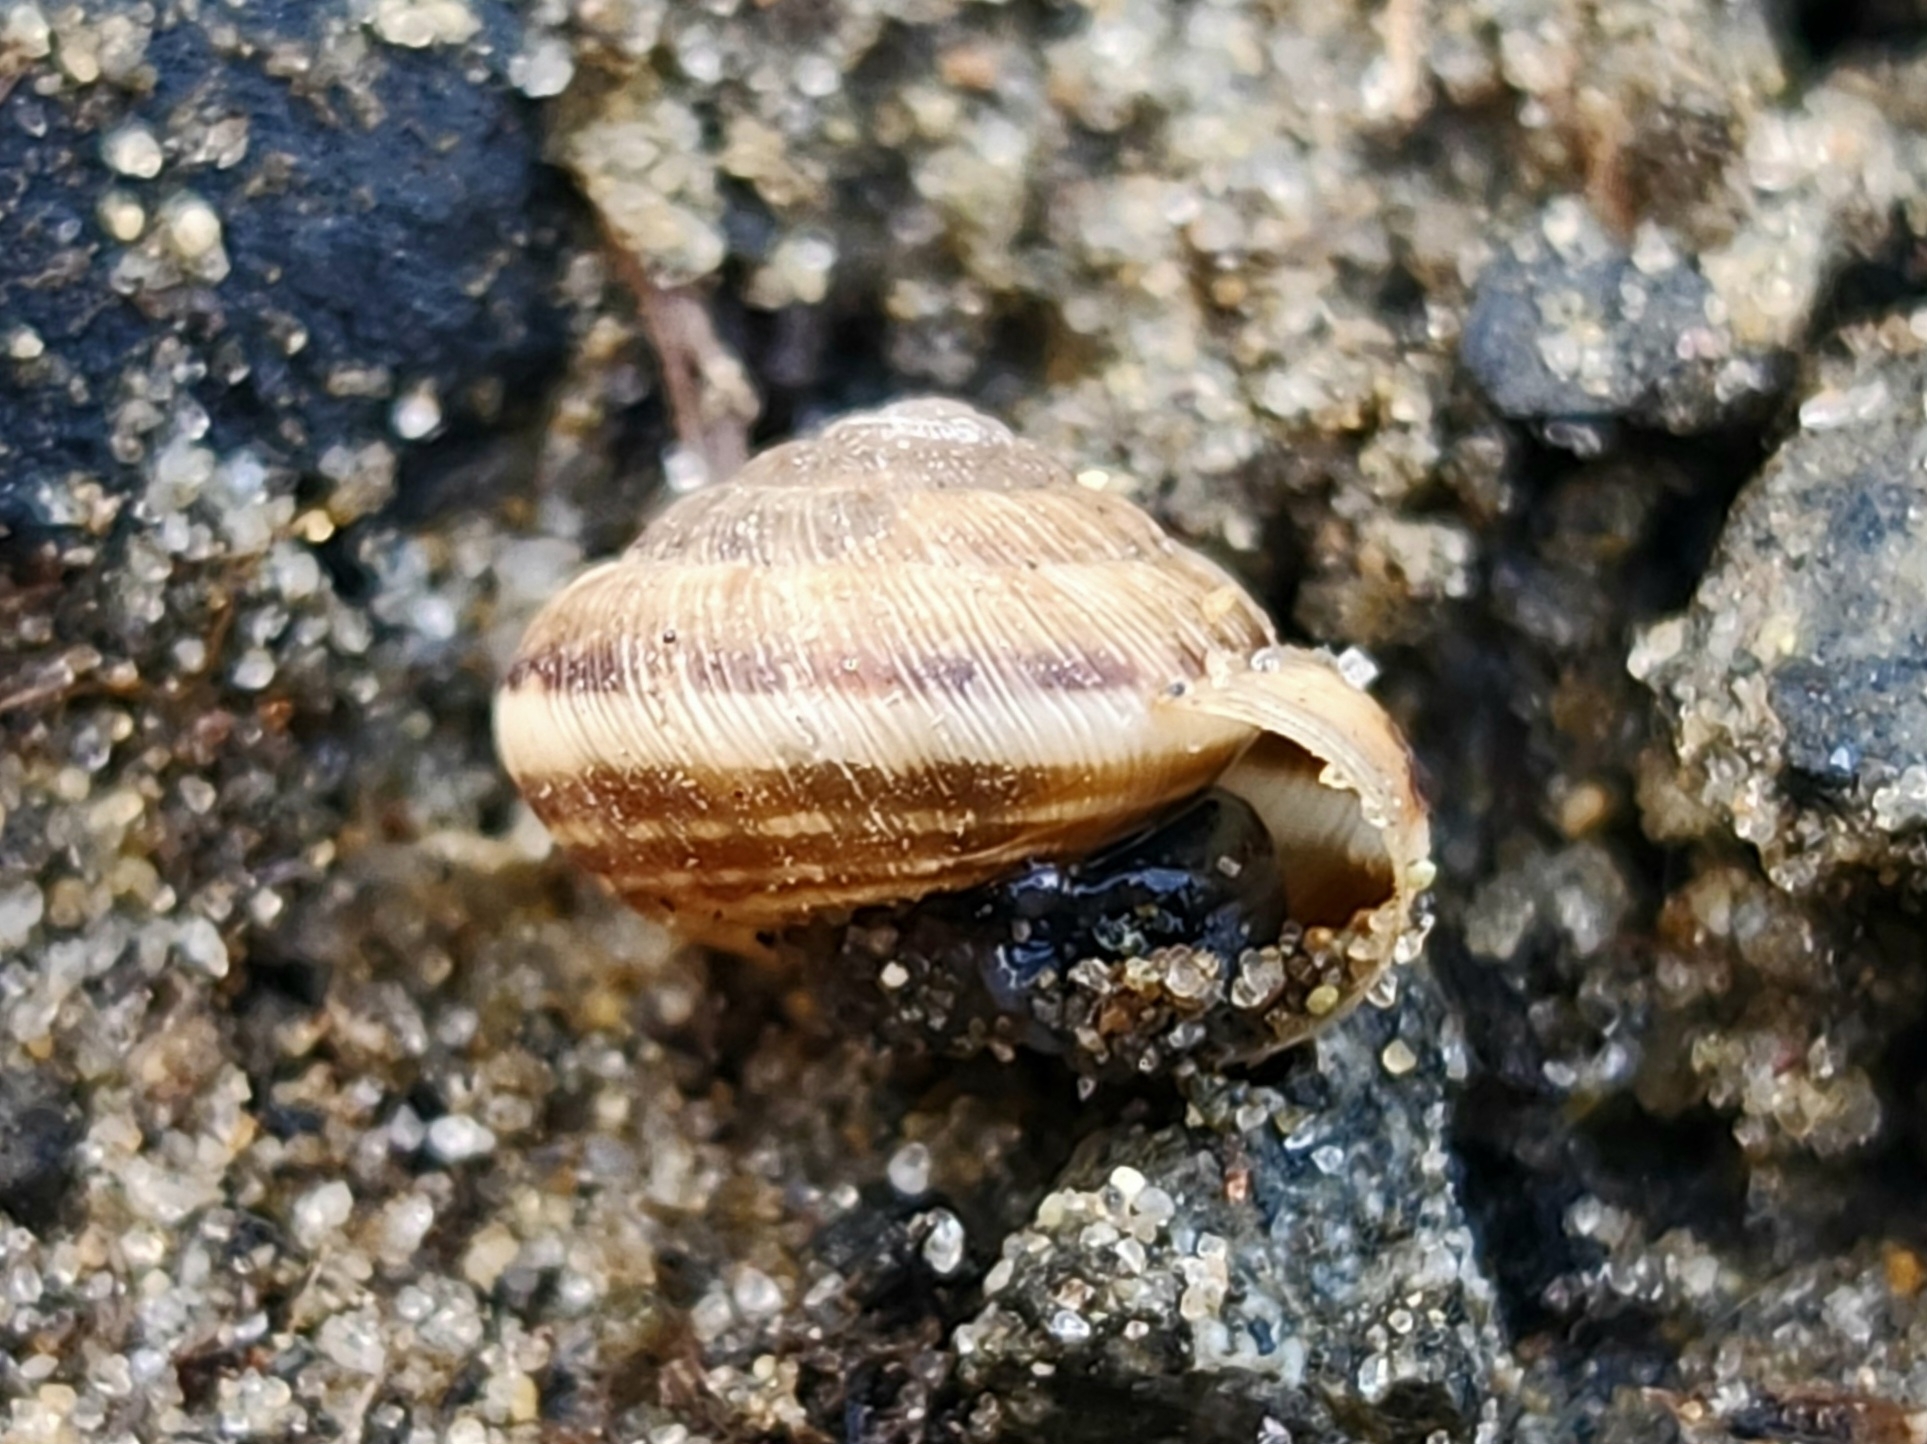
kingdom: Animalia
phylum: Mollusca
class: Gastropoda
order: Stylommatophora
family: Geomitridae
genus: Xeroplexa
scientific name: Xeroplexa intersecta
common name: Wrinkled snail
